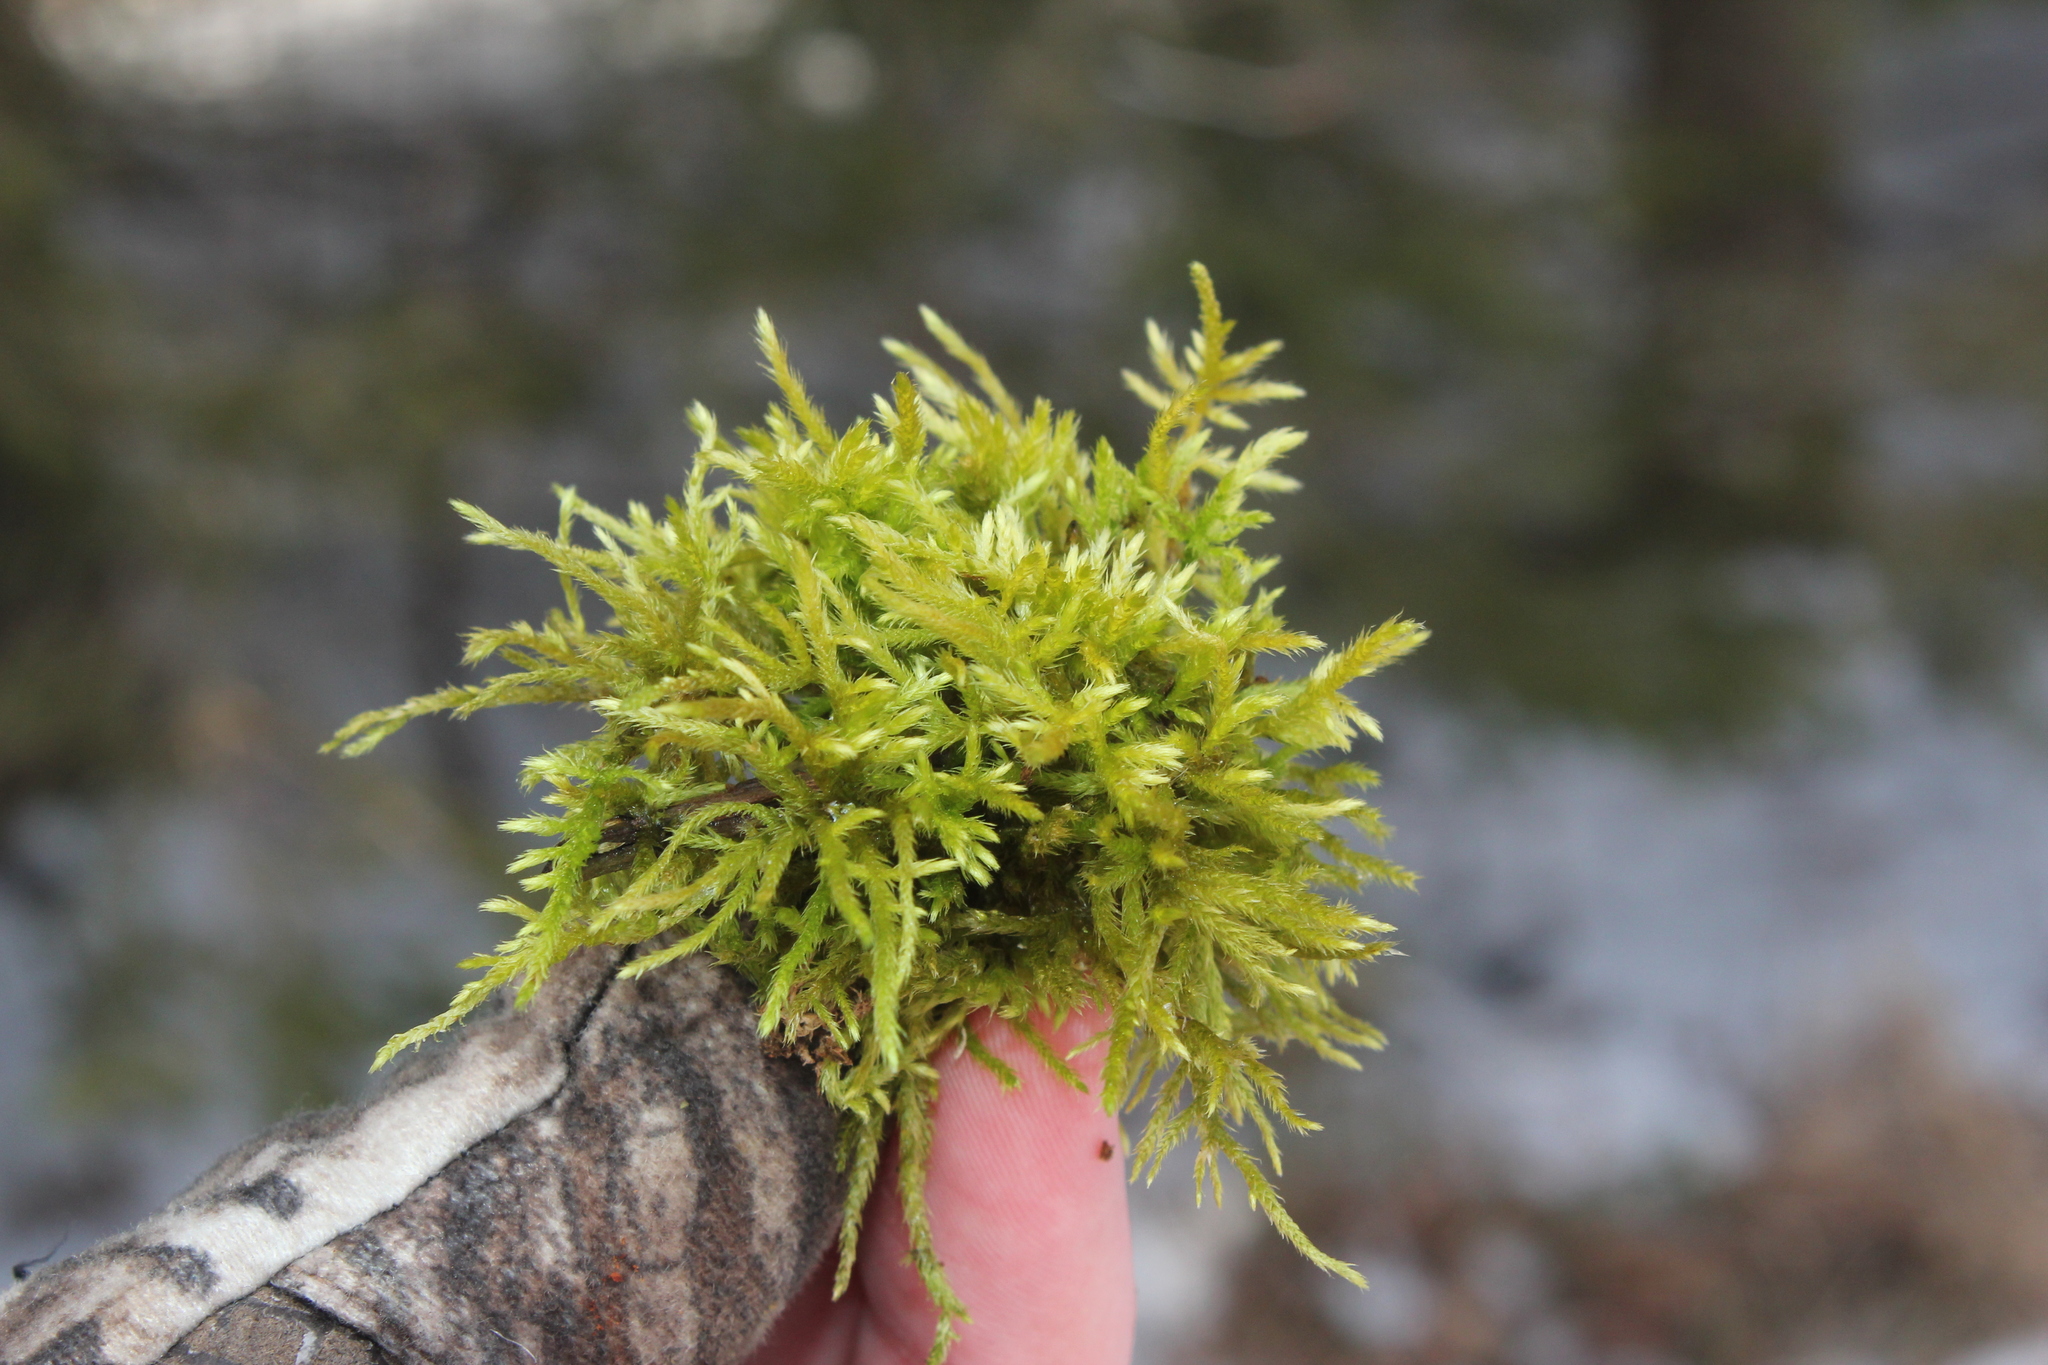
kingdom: Plantae
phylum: Bryophyta
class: Bryopsida
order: Hypnales
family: Callicladiaceae
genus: Callicladium
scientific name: Callicladium haldanianum
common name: Beautiful branch moss
